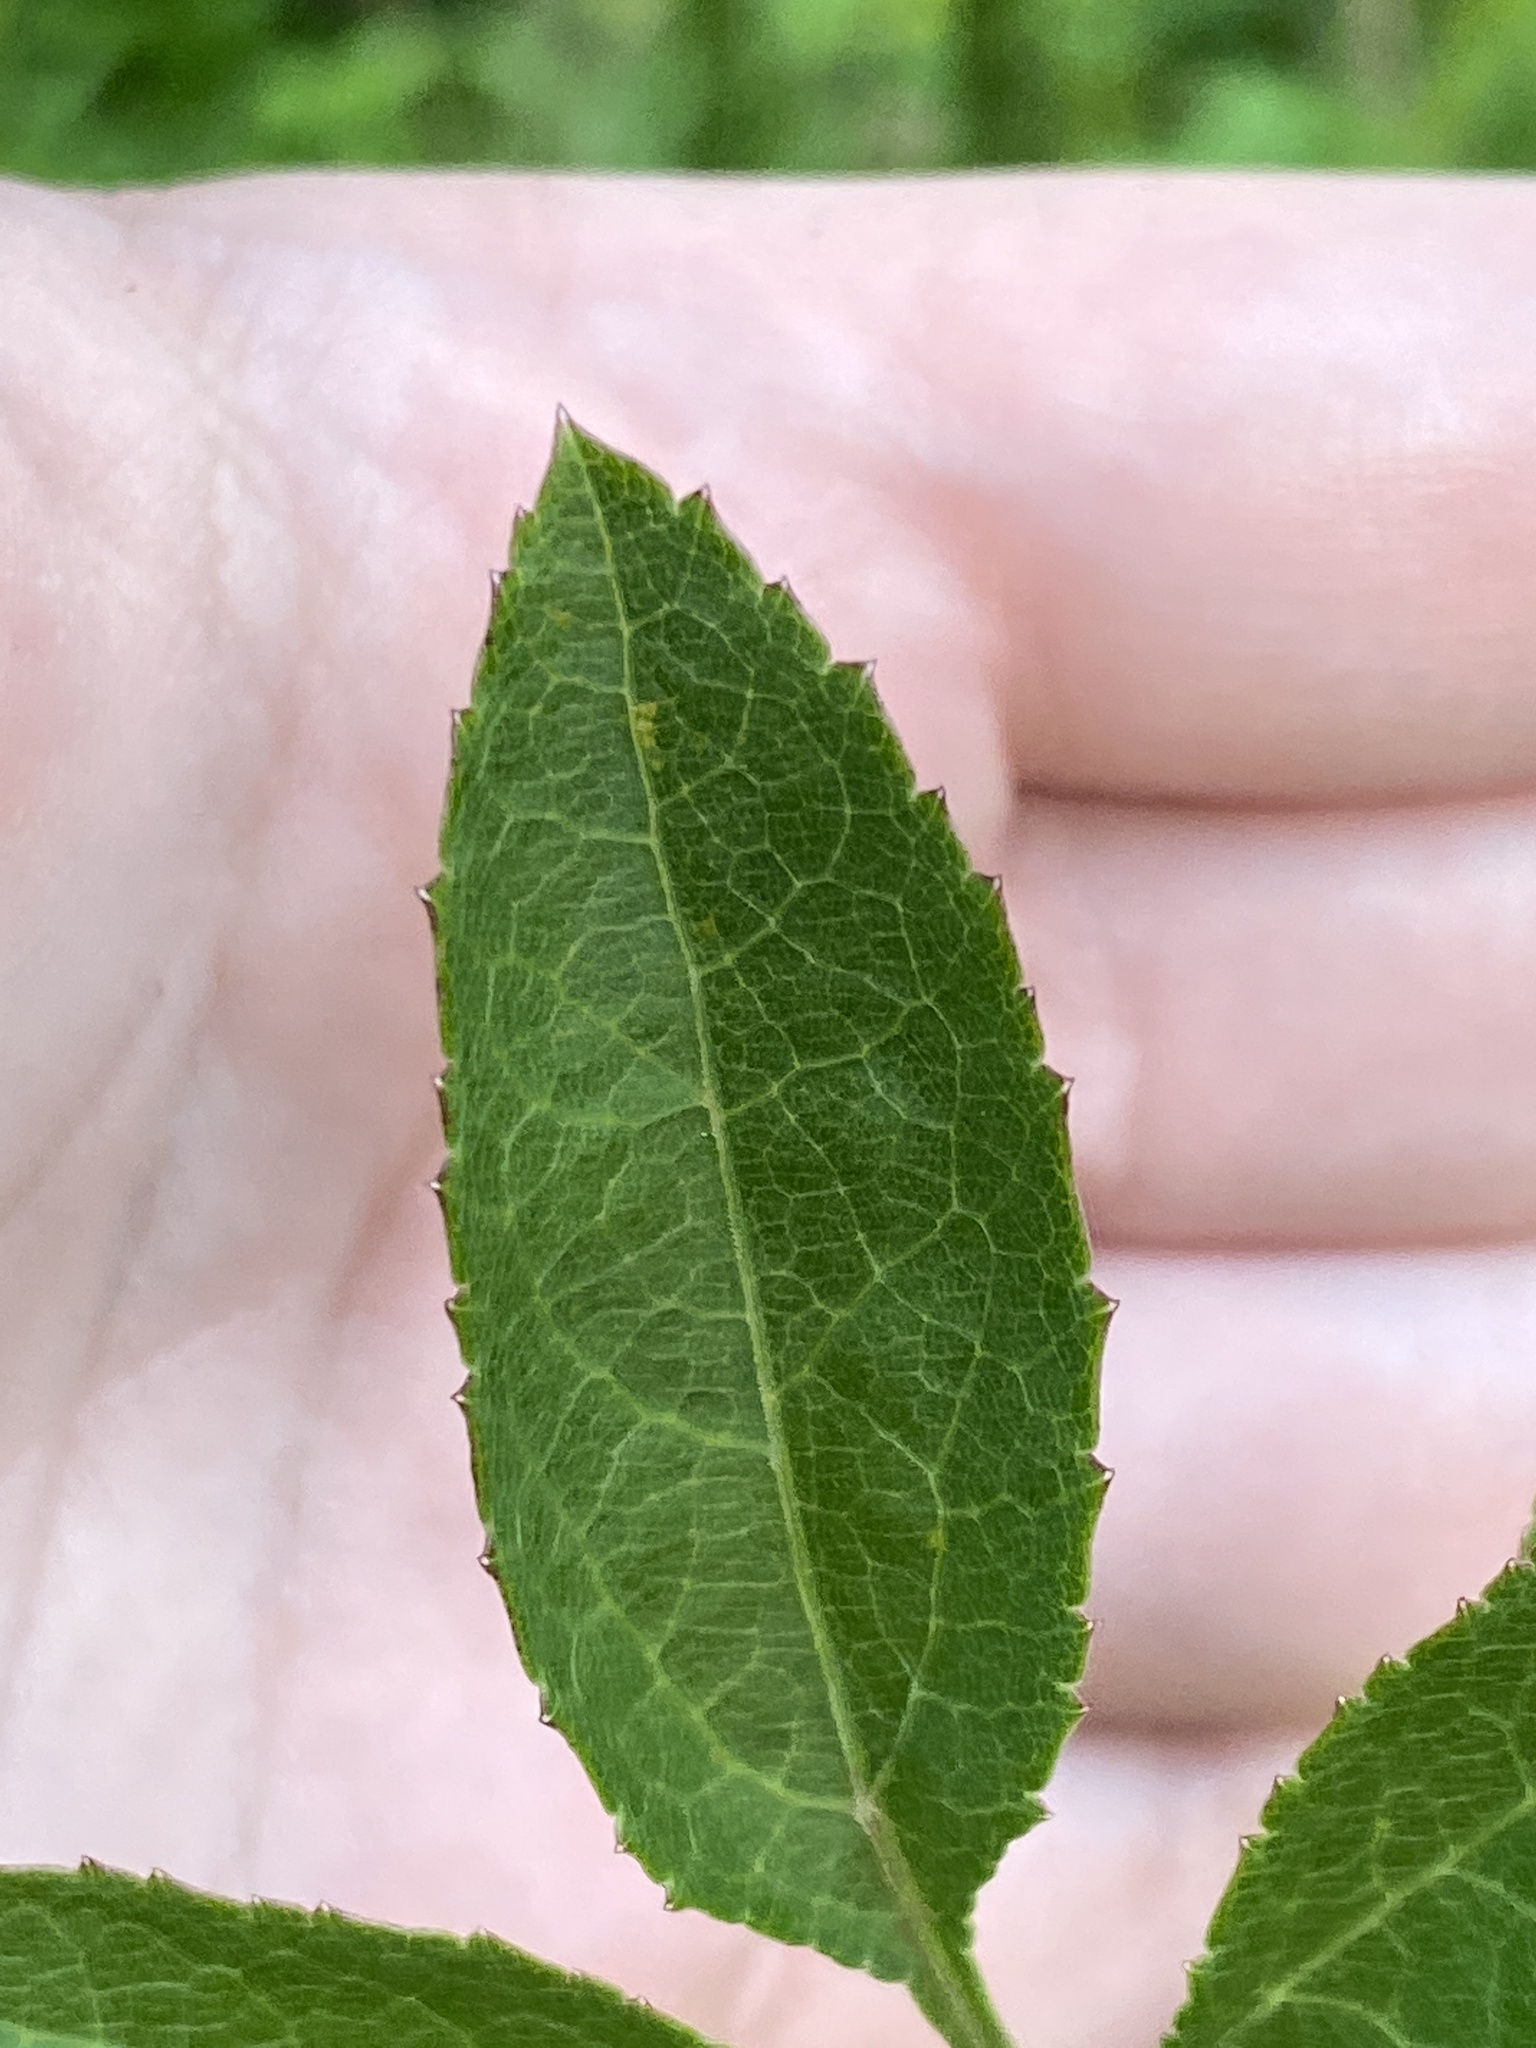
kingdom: Plantae
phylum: Tracheophyta
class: Magnoliopsida
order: Apiales
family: Apiaceae
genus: Angelica
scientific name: Angelica venenosa
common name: Hairy angelica
